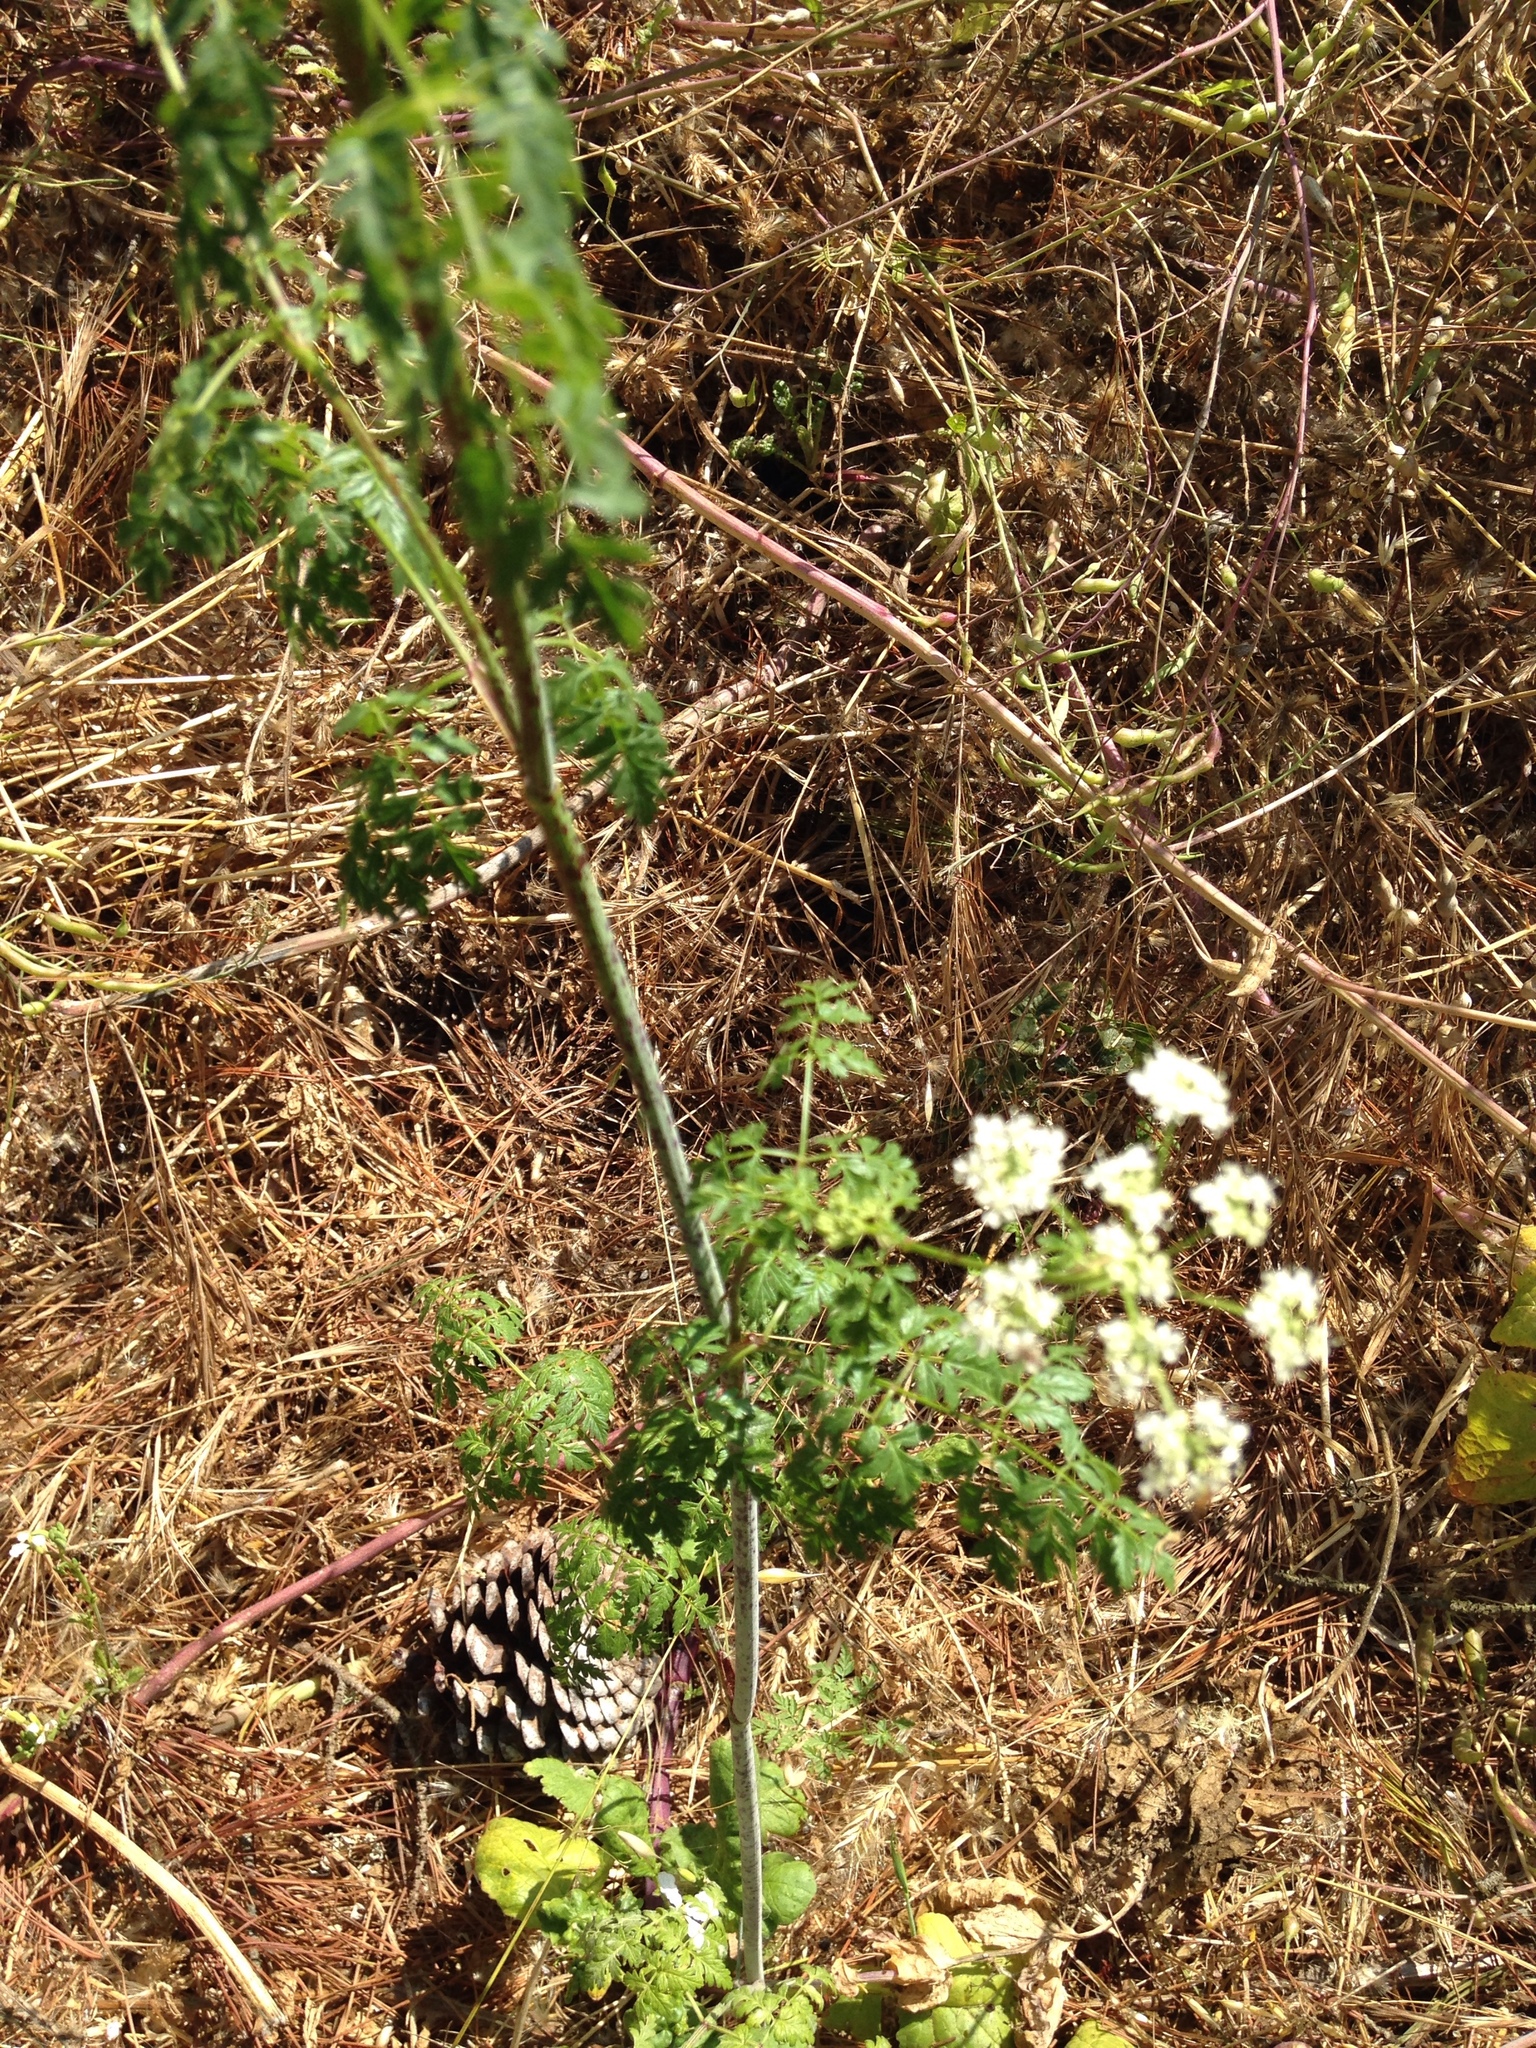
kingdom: Plantae
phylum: Tracheophyta
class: Magnoliopsida
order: Apiales
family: Apiaceae
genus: Conium
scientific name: Conium maculatum
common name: Hemlock
